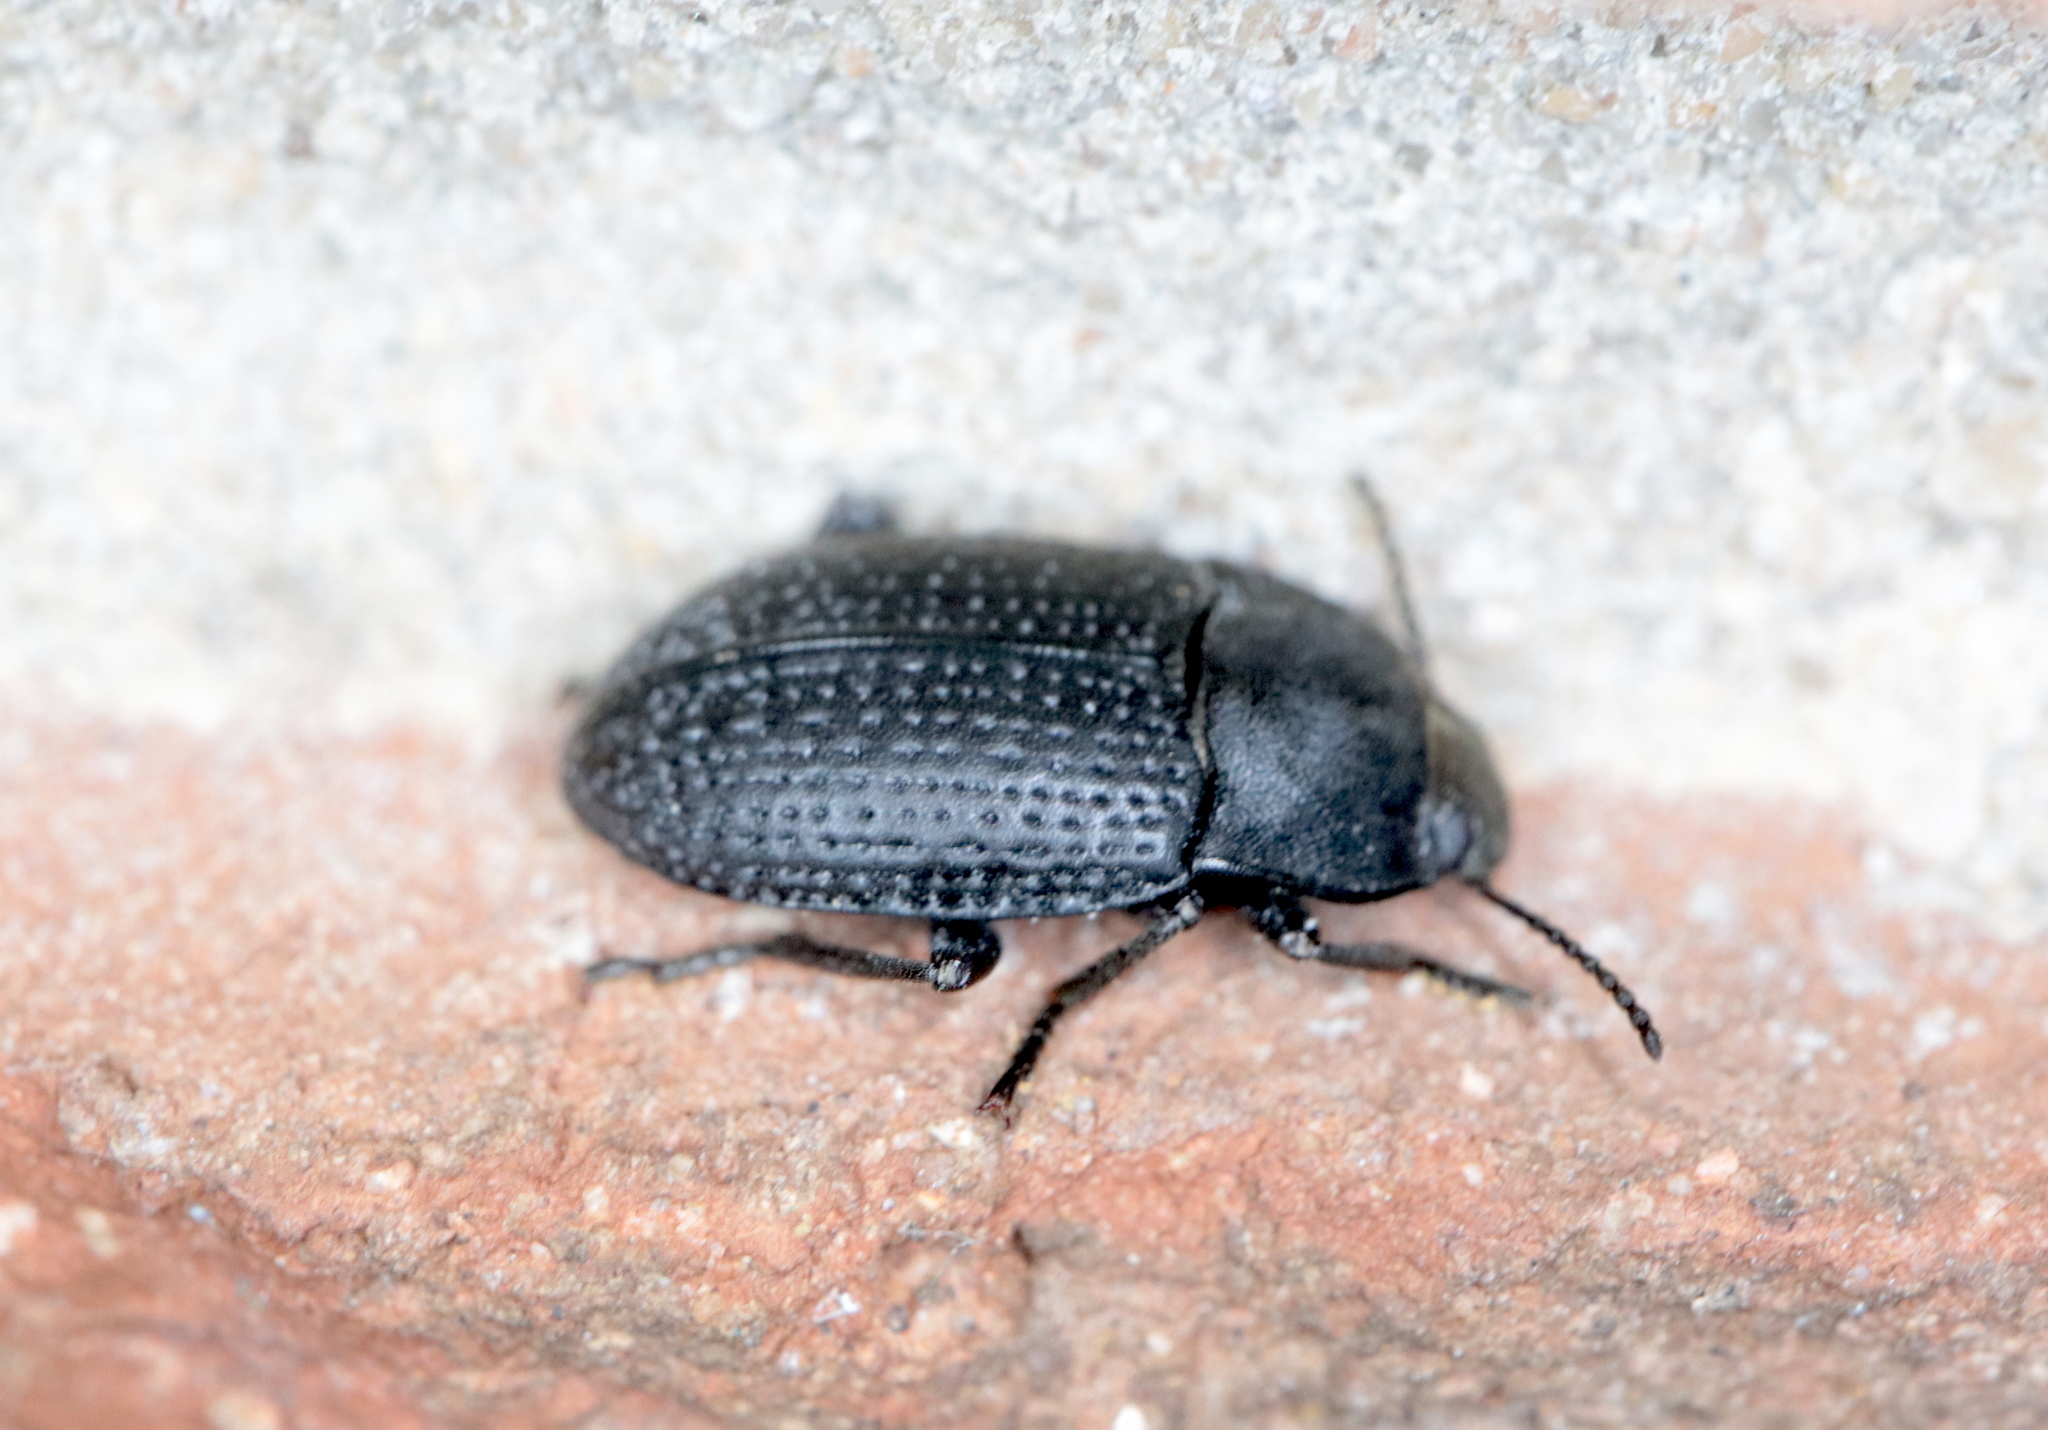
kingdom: Animalia
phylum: Arthropoda
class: Insecta
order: Coleoptera
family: Tenebrionidae
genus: Asiopus
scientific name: Asiopus
